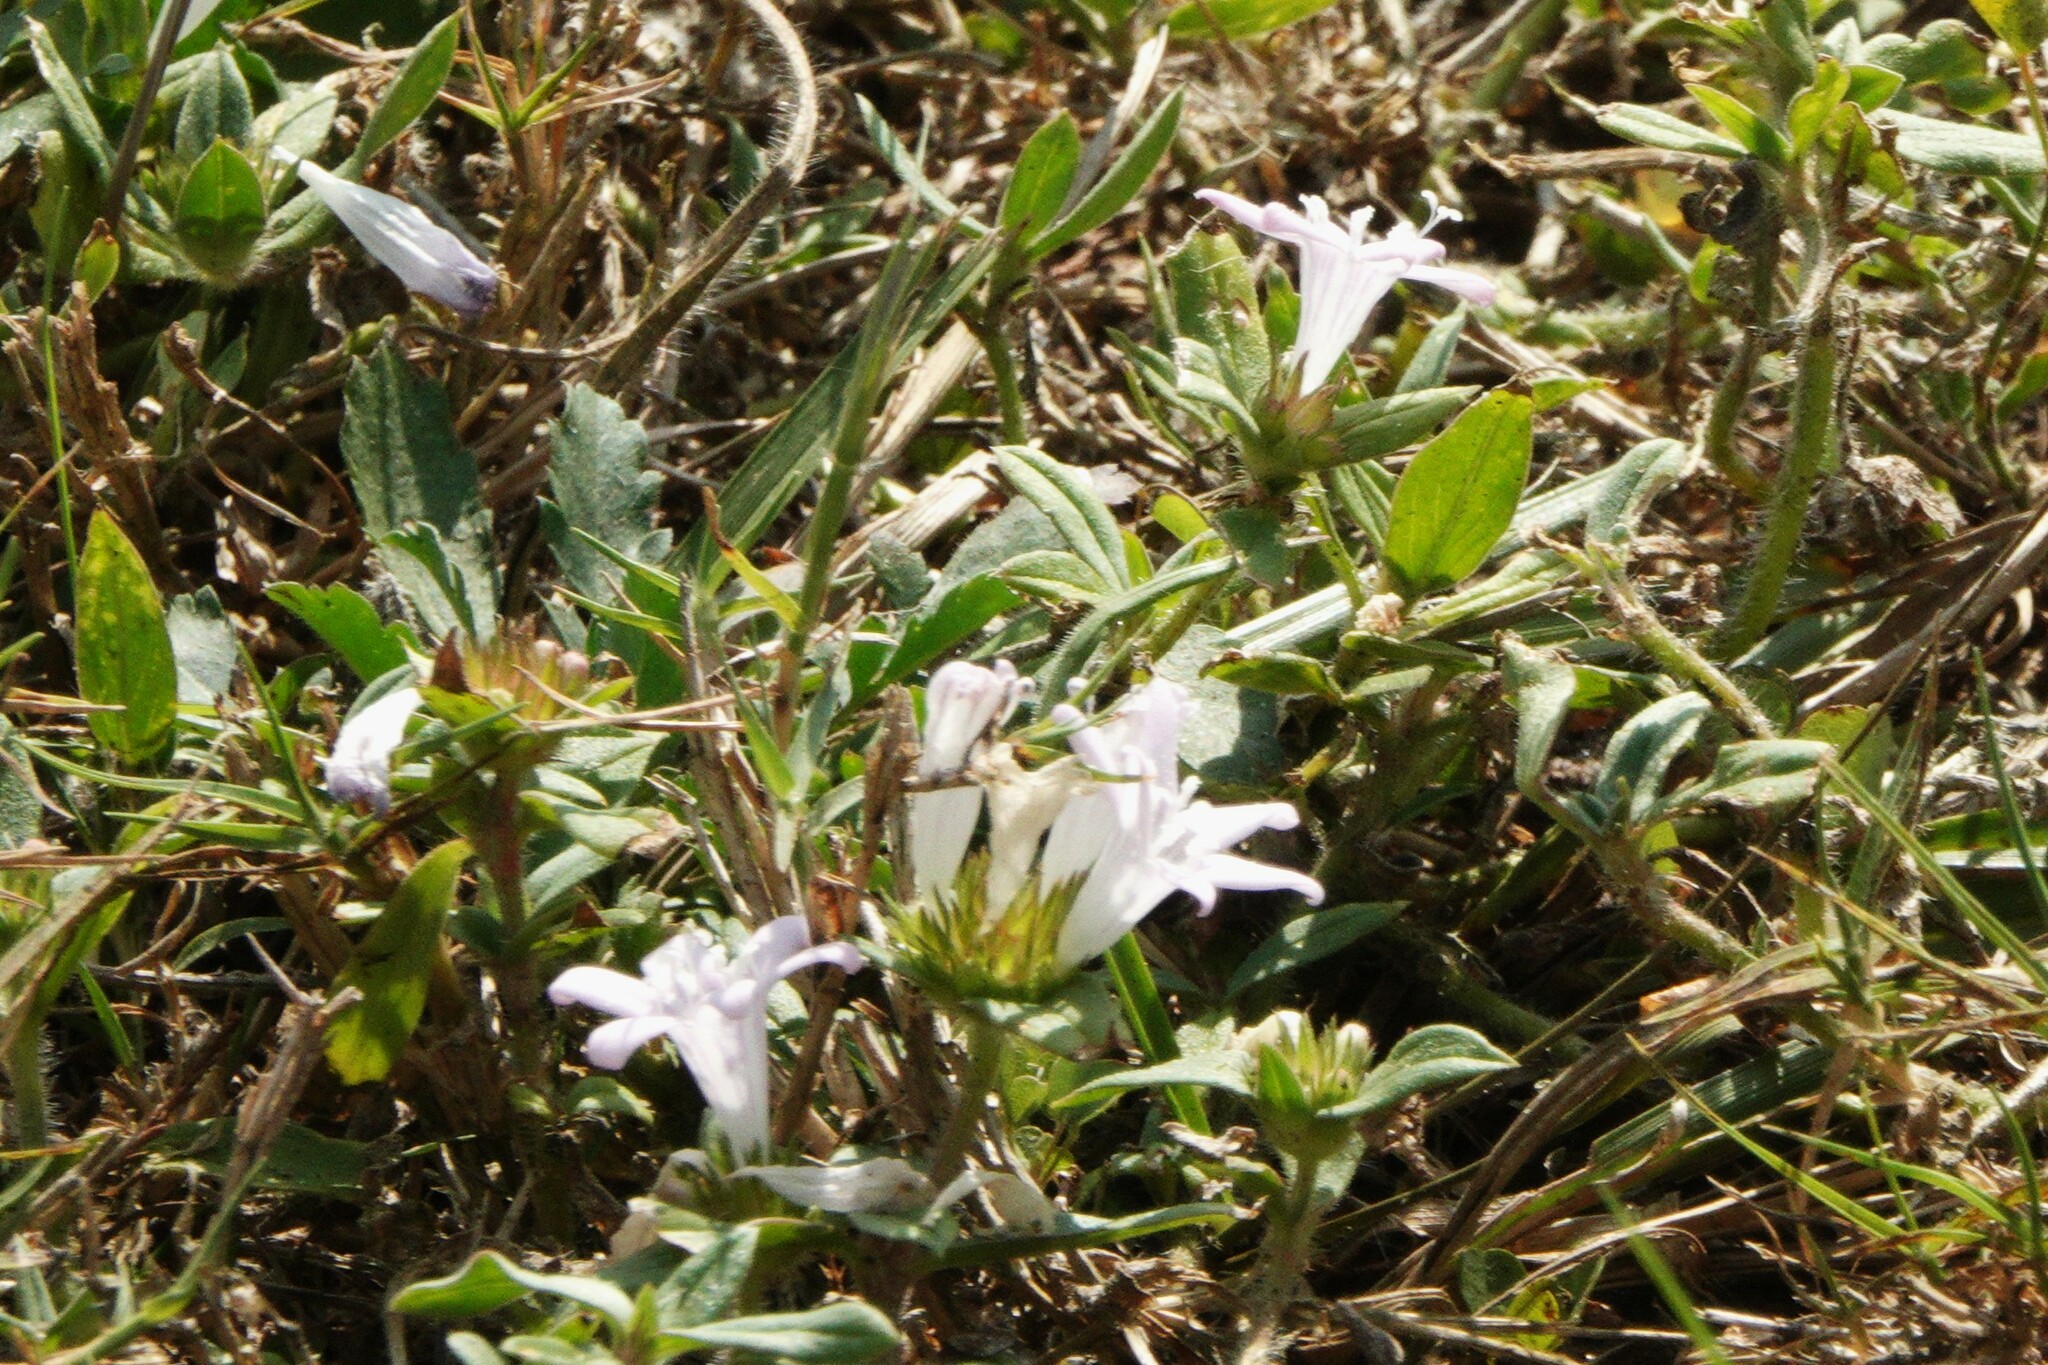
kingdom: Plantae
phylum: Tracheophyta
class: Magnoliopsida
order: Gentianales
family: Rubiaceae
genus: Richardia
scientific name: Richardia grandiflora
